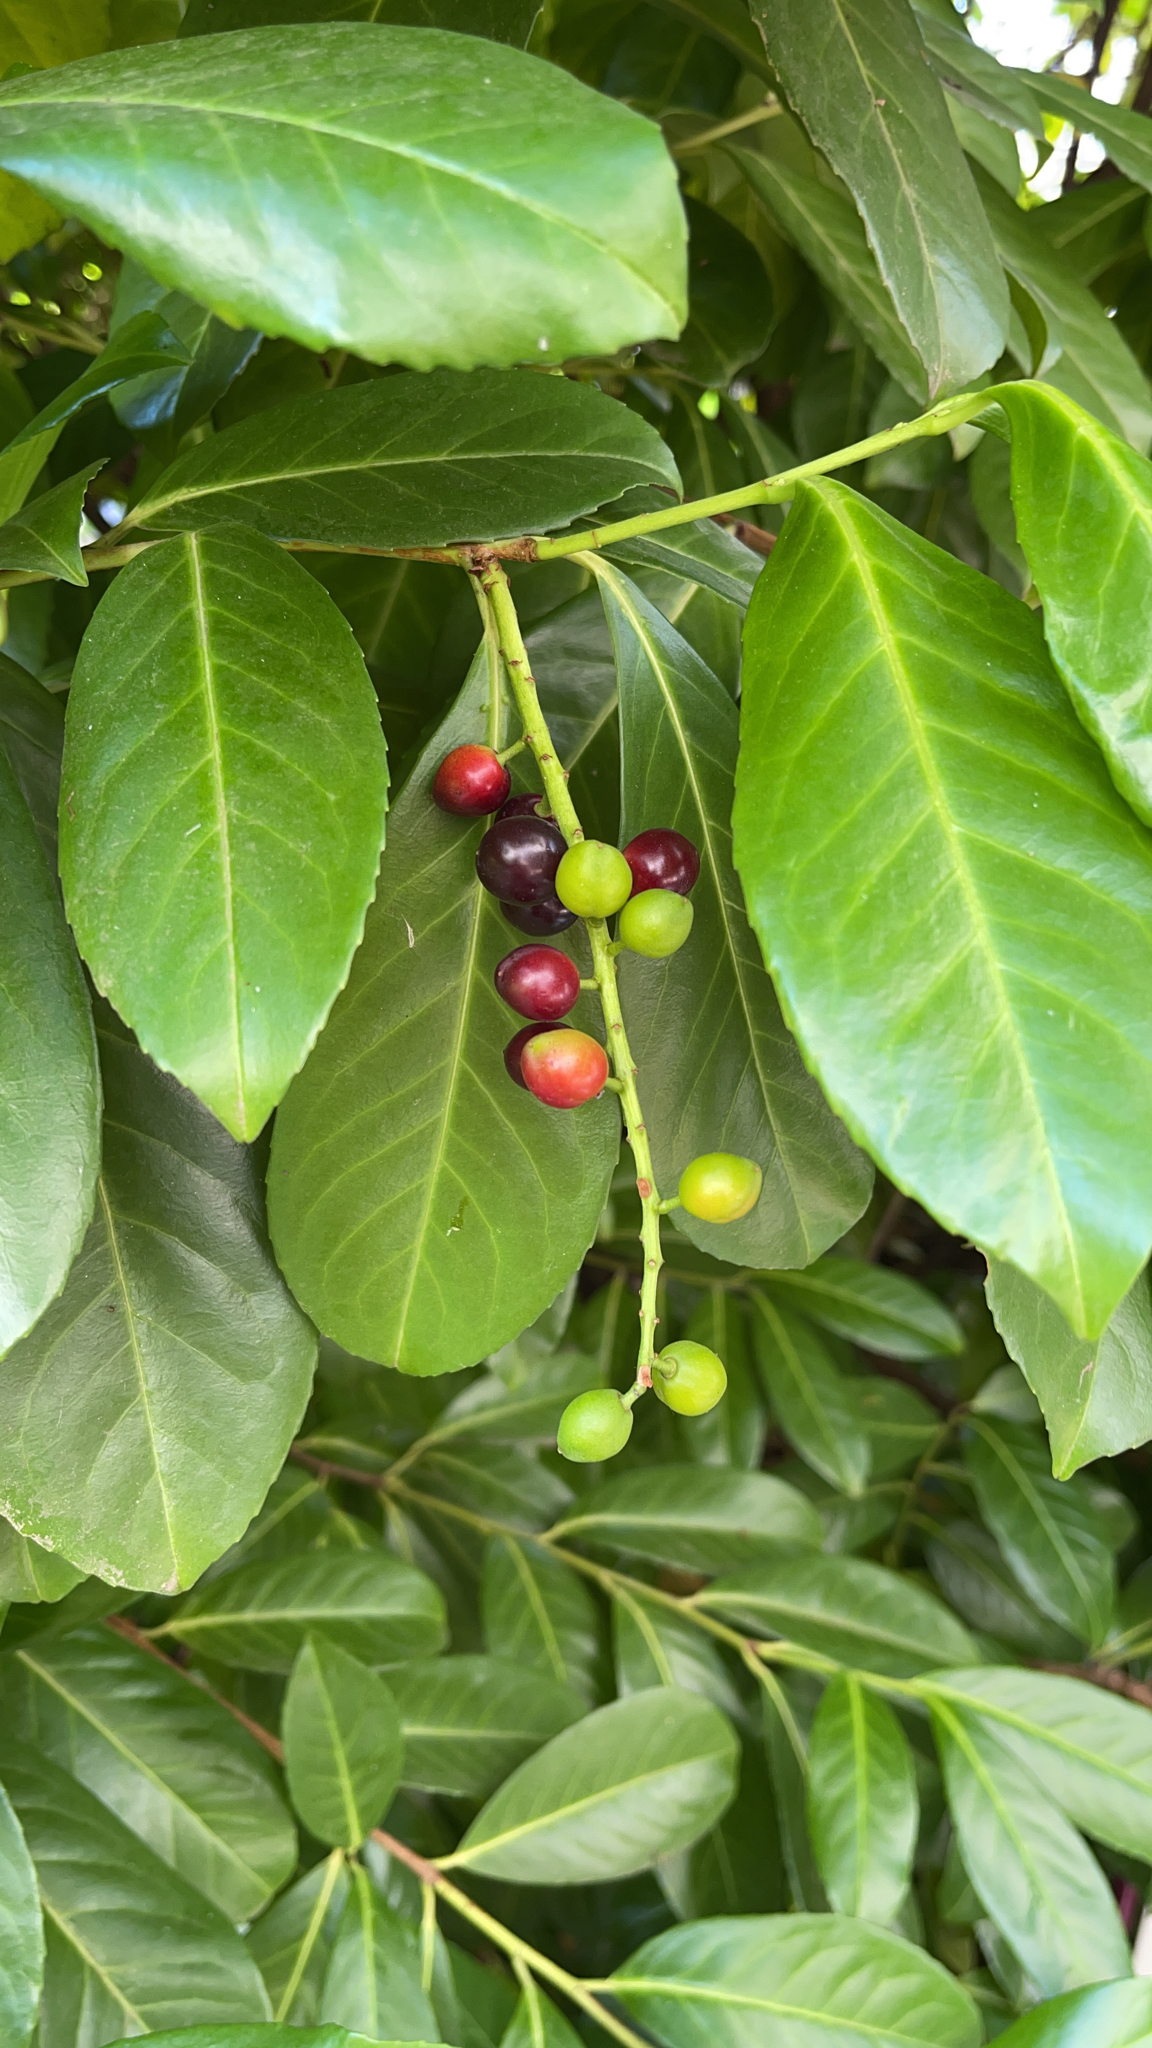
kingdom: Plantae
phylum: Tracheophyta
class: Magnoliopsida
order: Rosales
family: Rosaceae
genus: Prunus
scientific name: Prunus laurocerasus
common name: Cherry laurel
